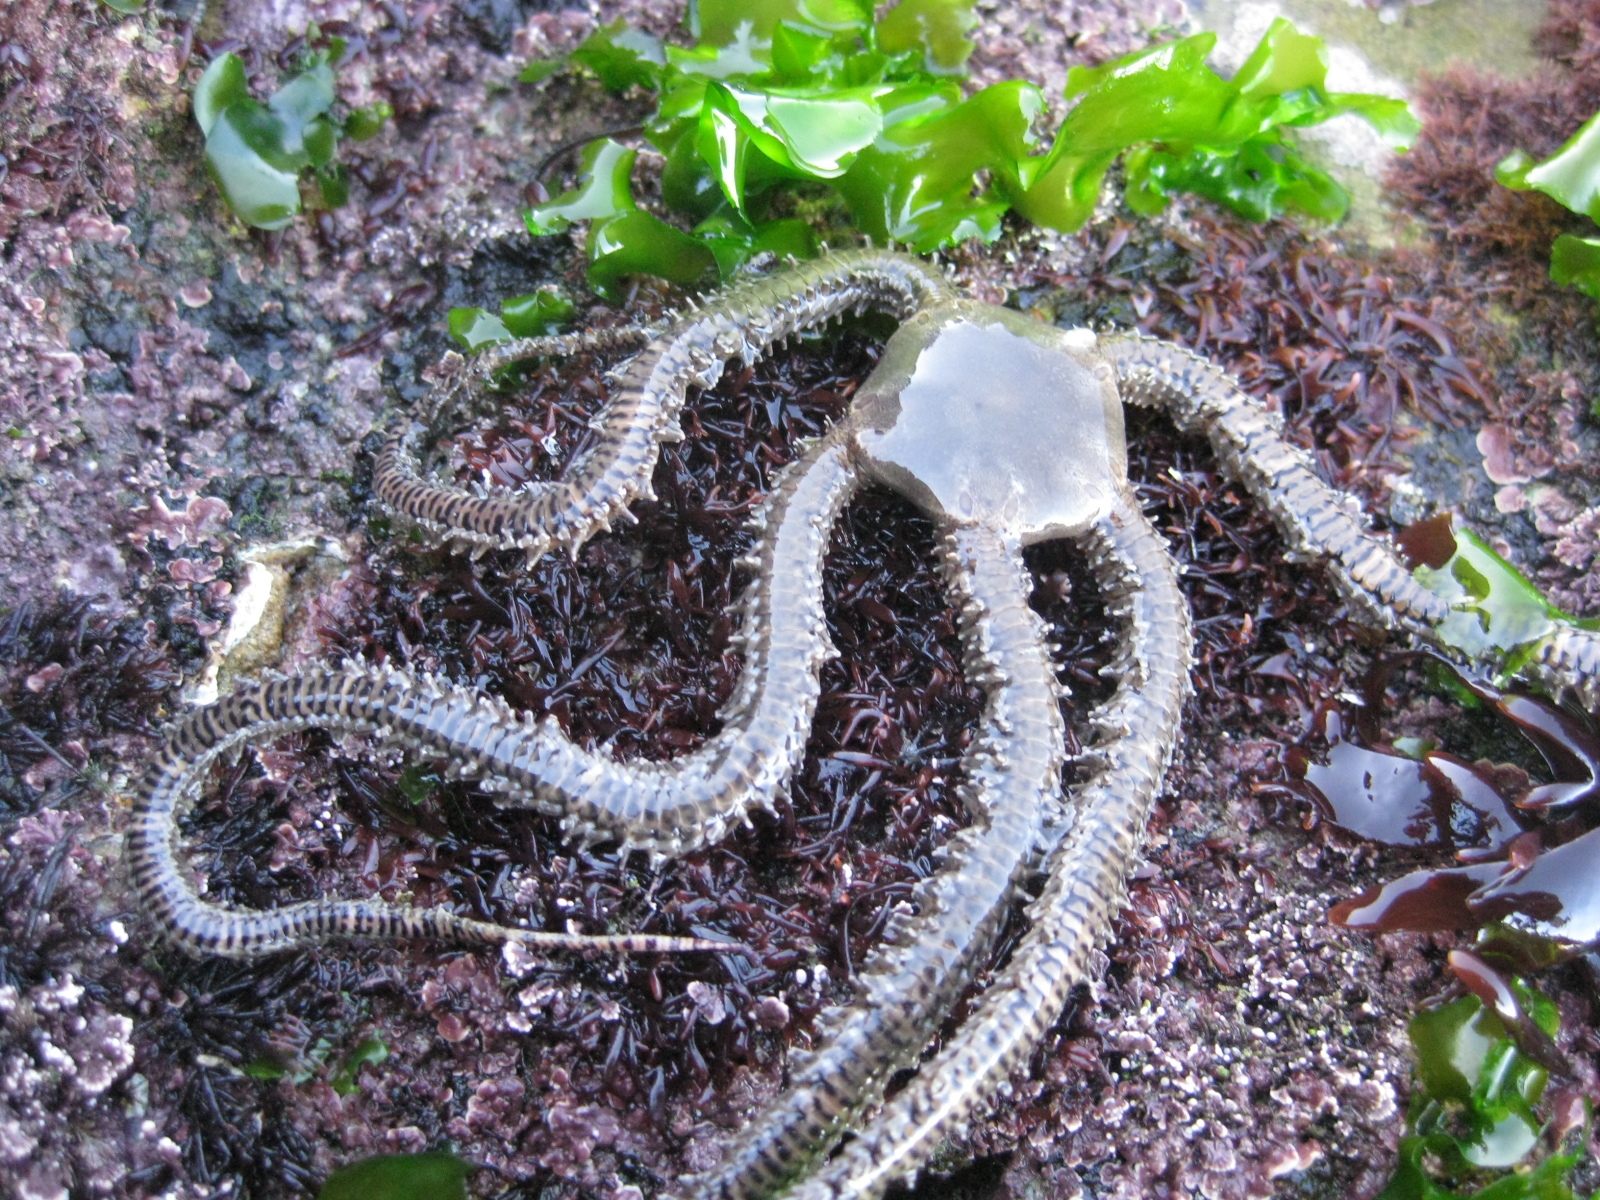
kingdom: Animalia
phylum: Echinodermata
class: Ophiuroidea
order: Amphilepidida
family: Ophionereididae
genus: Ophionereis
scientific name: Ophionereis fasciata
